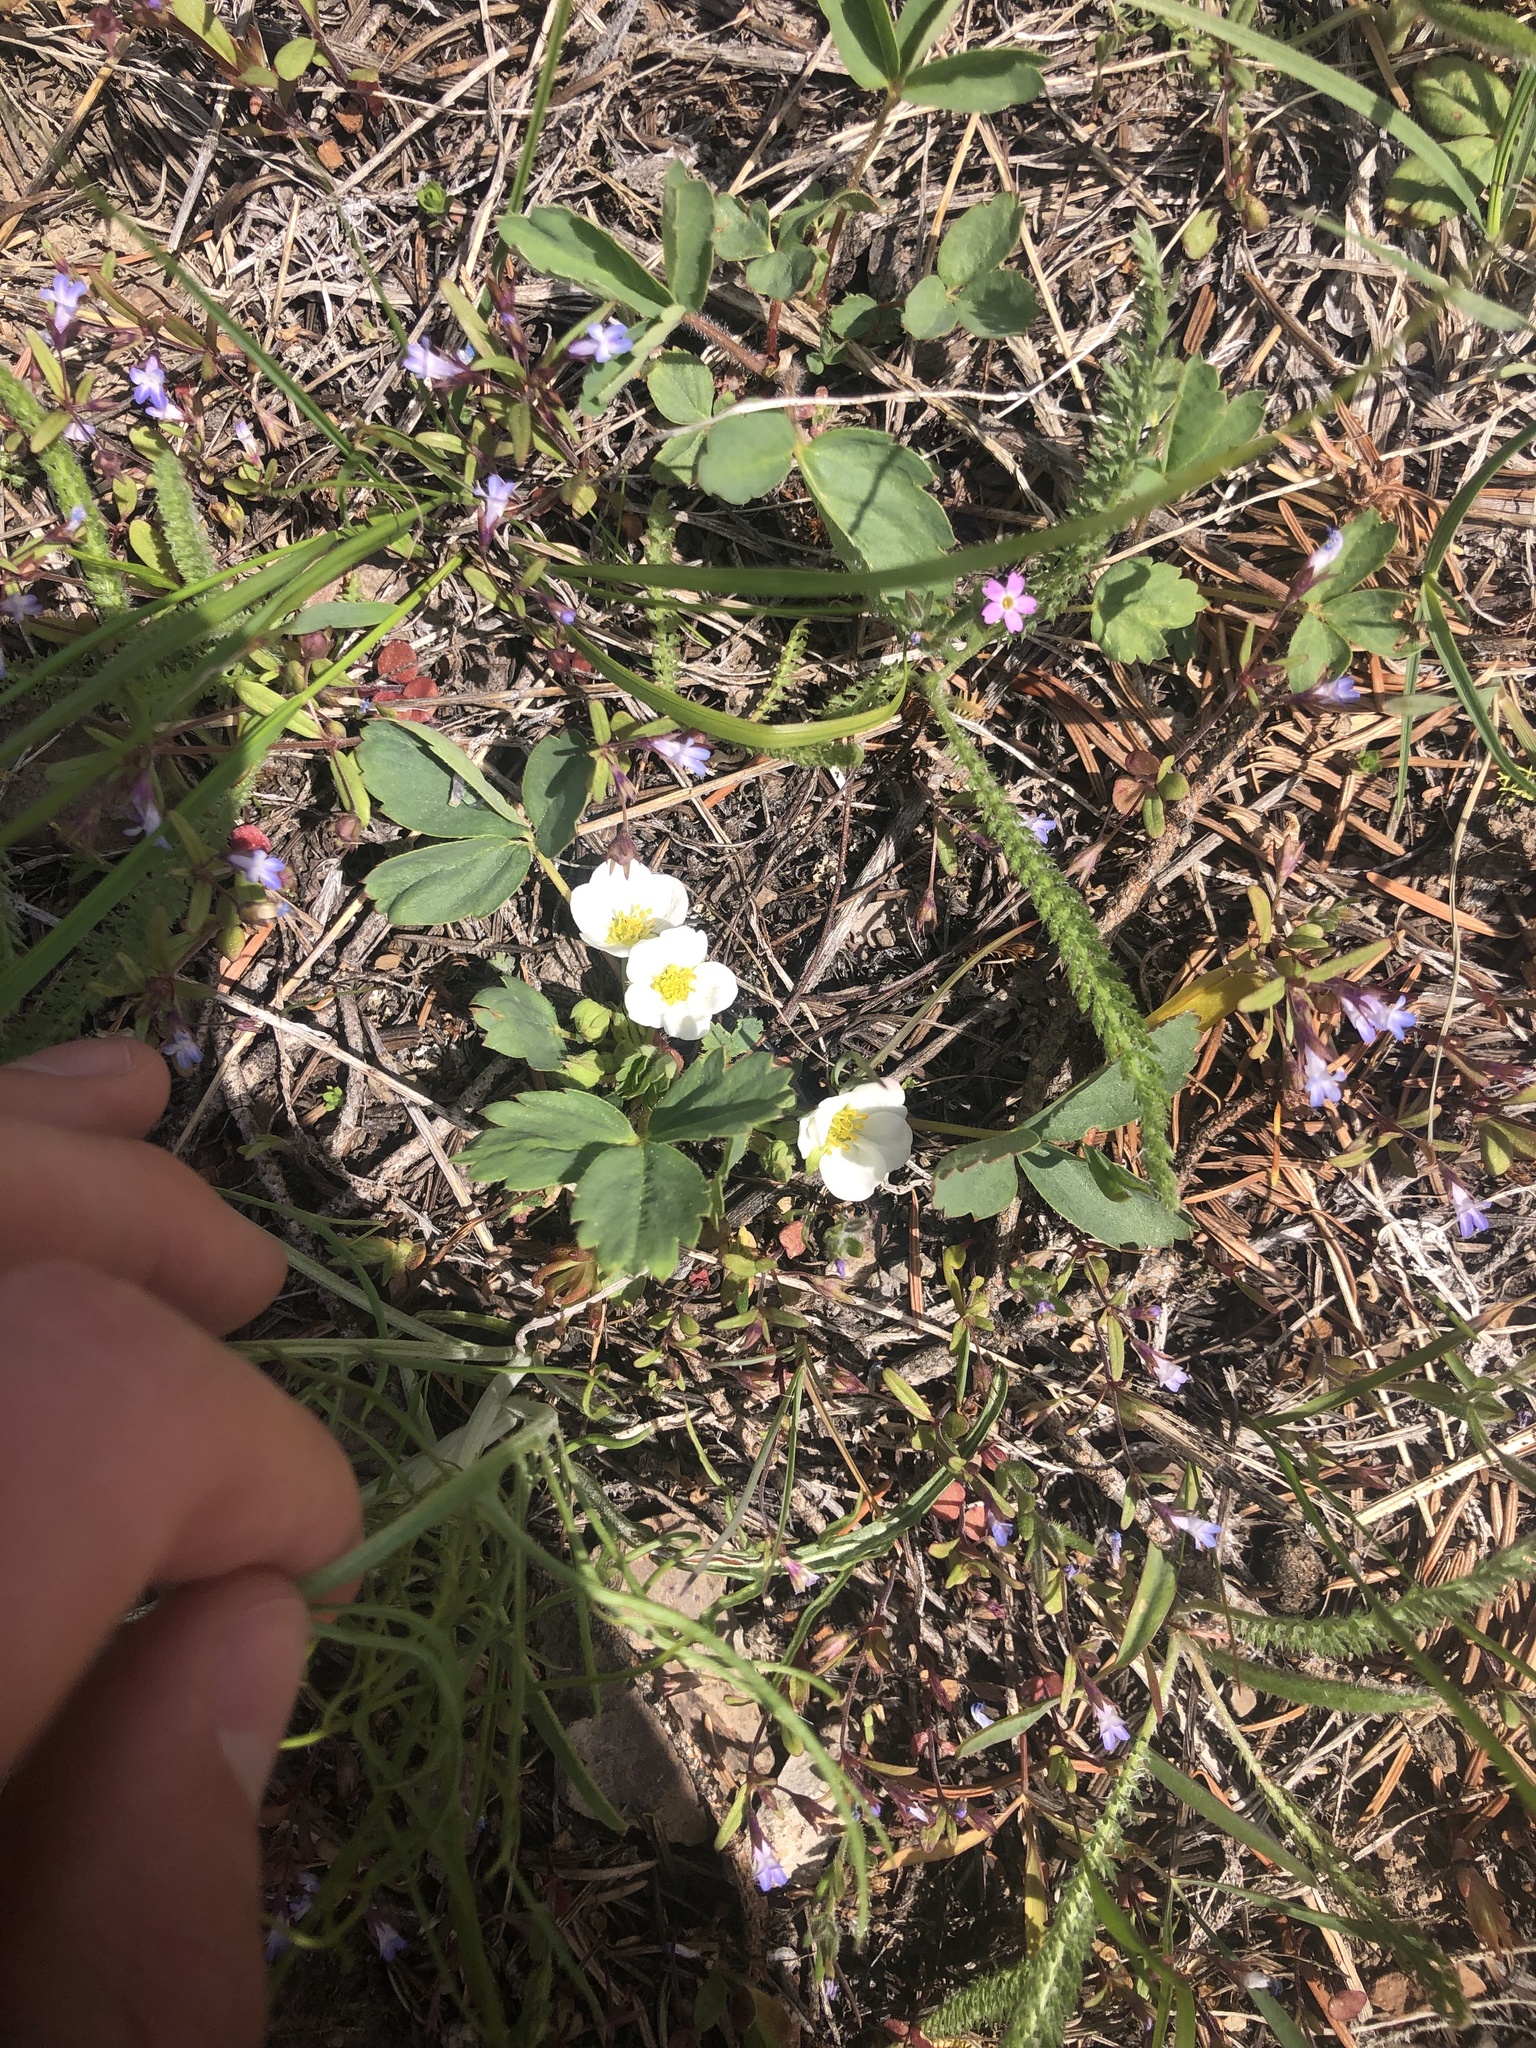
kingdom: Plantae
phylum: Tracheophyta
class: Magnoliopsida
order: Rosales
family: Rosaceae
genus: Fragaria
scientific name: Fragaria virginiana
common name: Thickleaved wild strawberry
